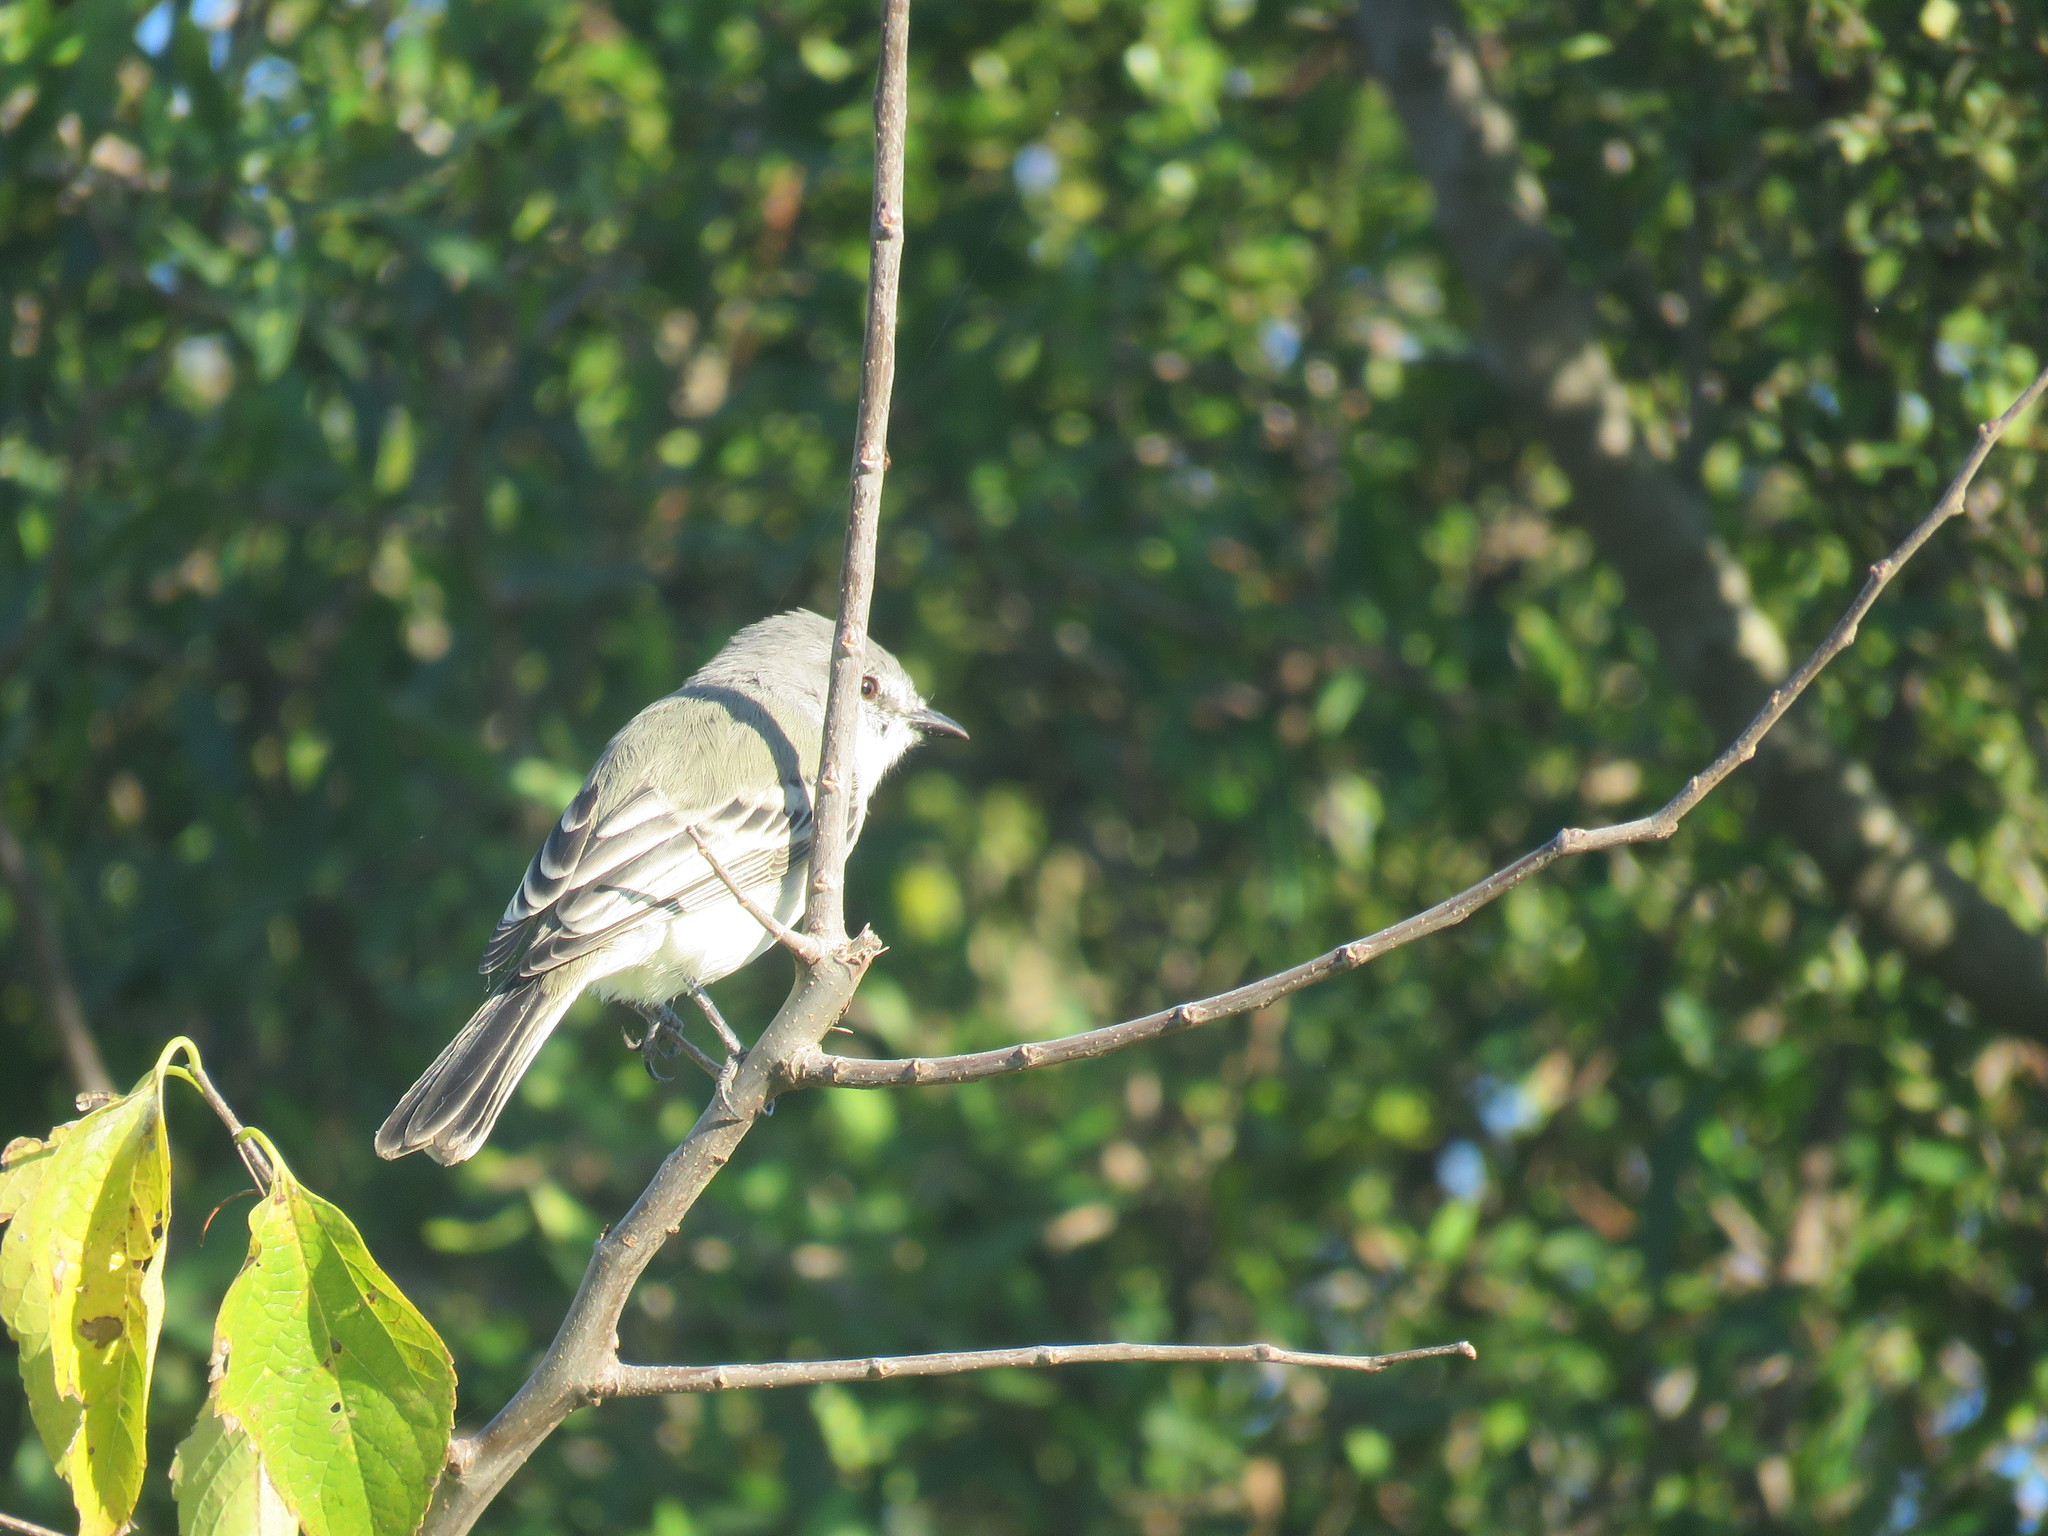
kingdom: Animalia
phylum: Chordata
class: Aves
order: Passeriformes
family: Tyrannidae
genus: Suiriri
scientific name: Suiriri suiriri
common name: Suiriri flycatcher
